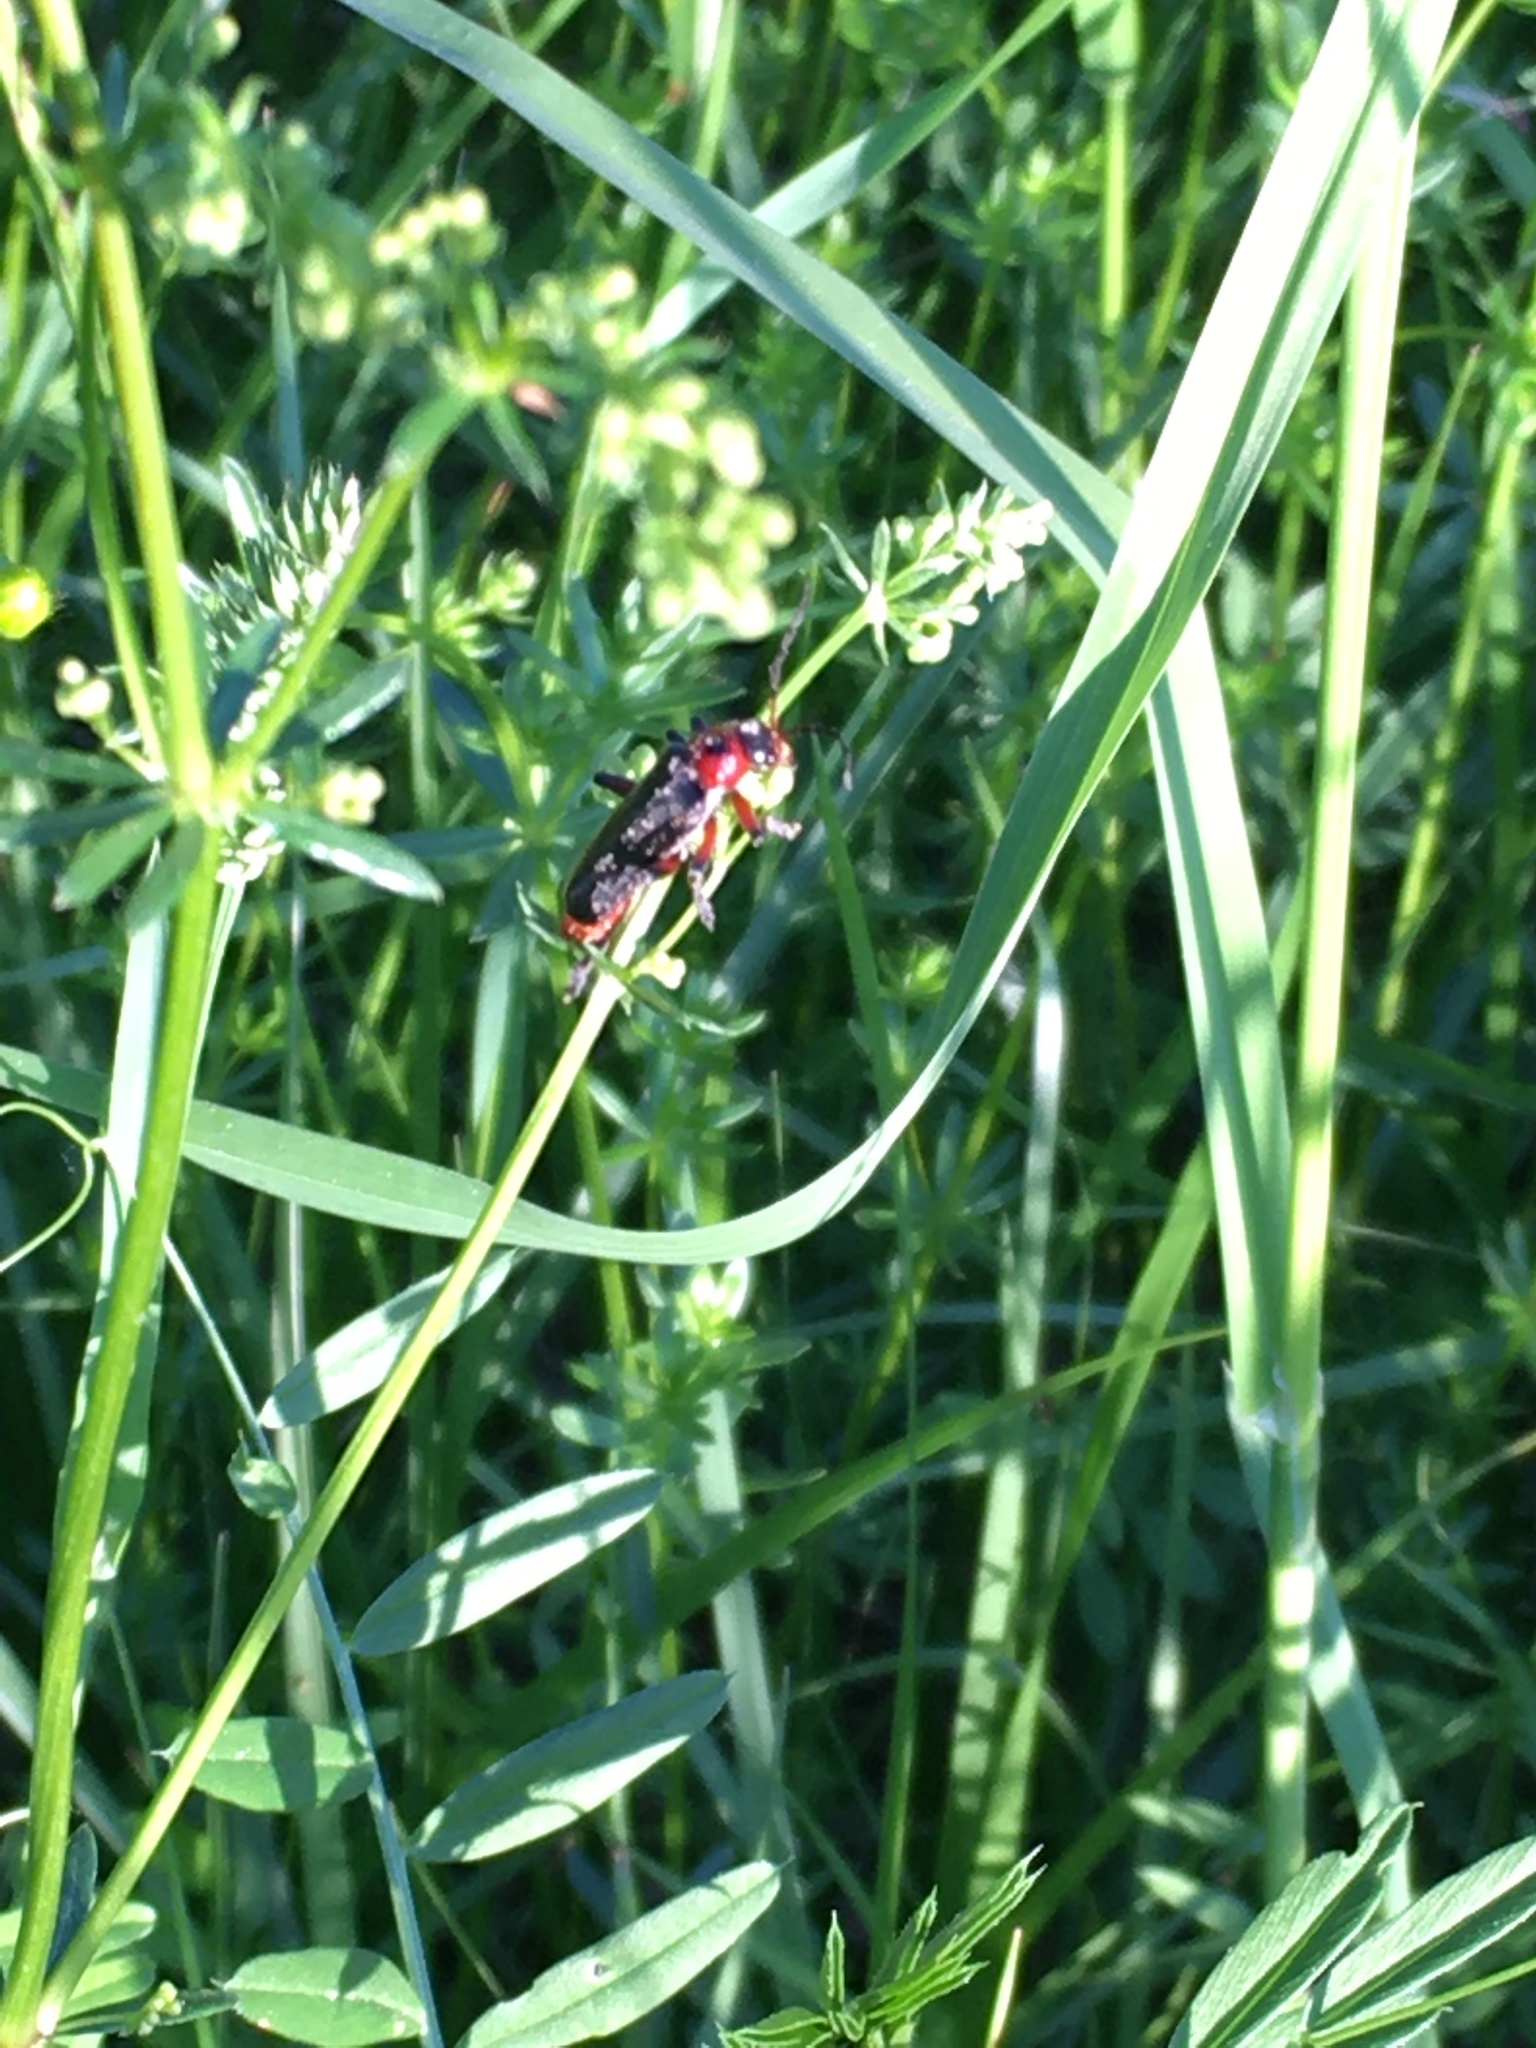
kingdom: Animalia
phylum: Arthropoda
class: Insecta
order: Coleoptera
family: Cantharidae
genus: Cantharis
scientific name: Cantharis rustica
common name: Soldier beetle
